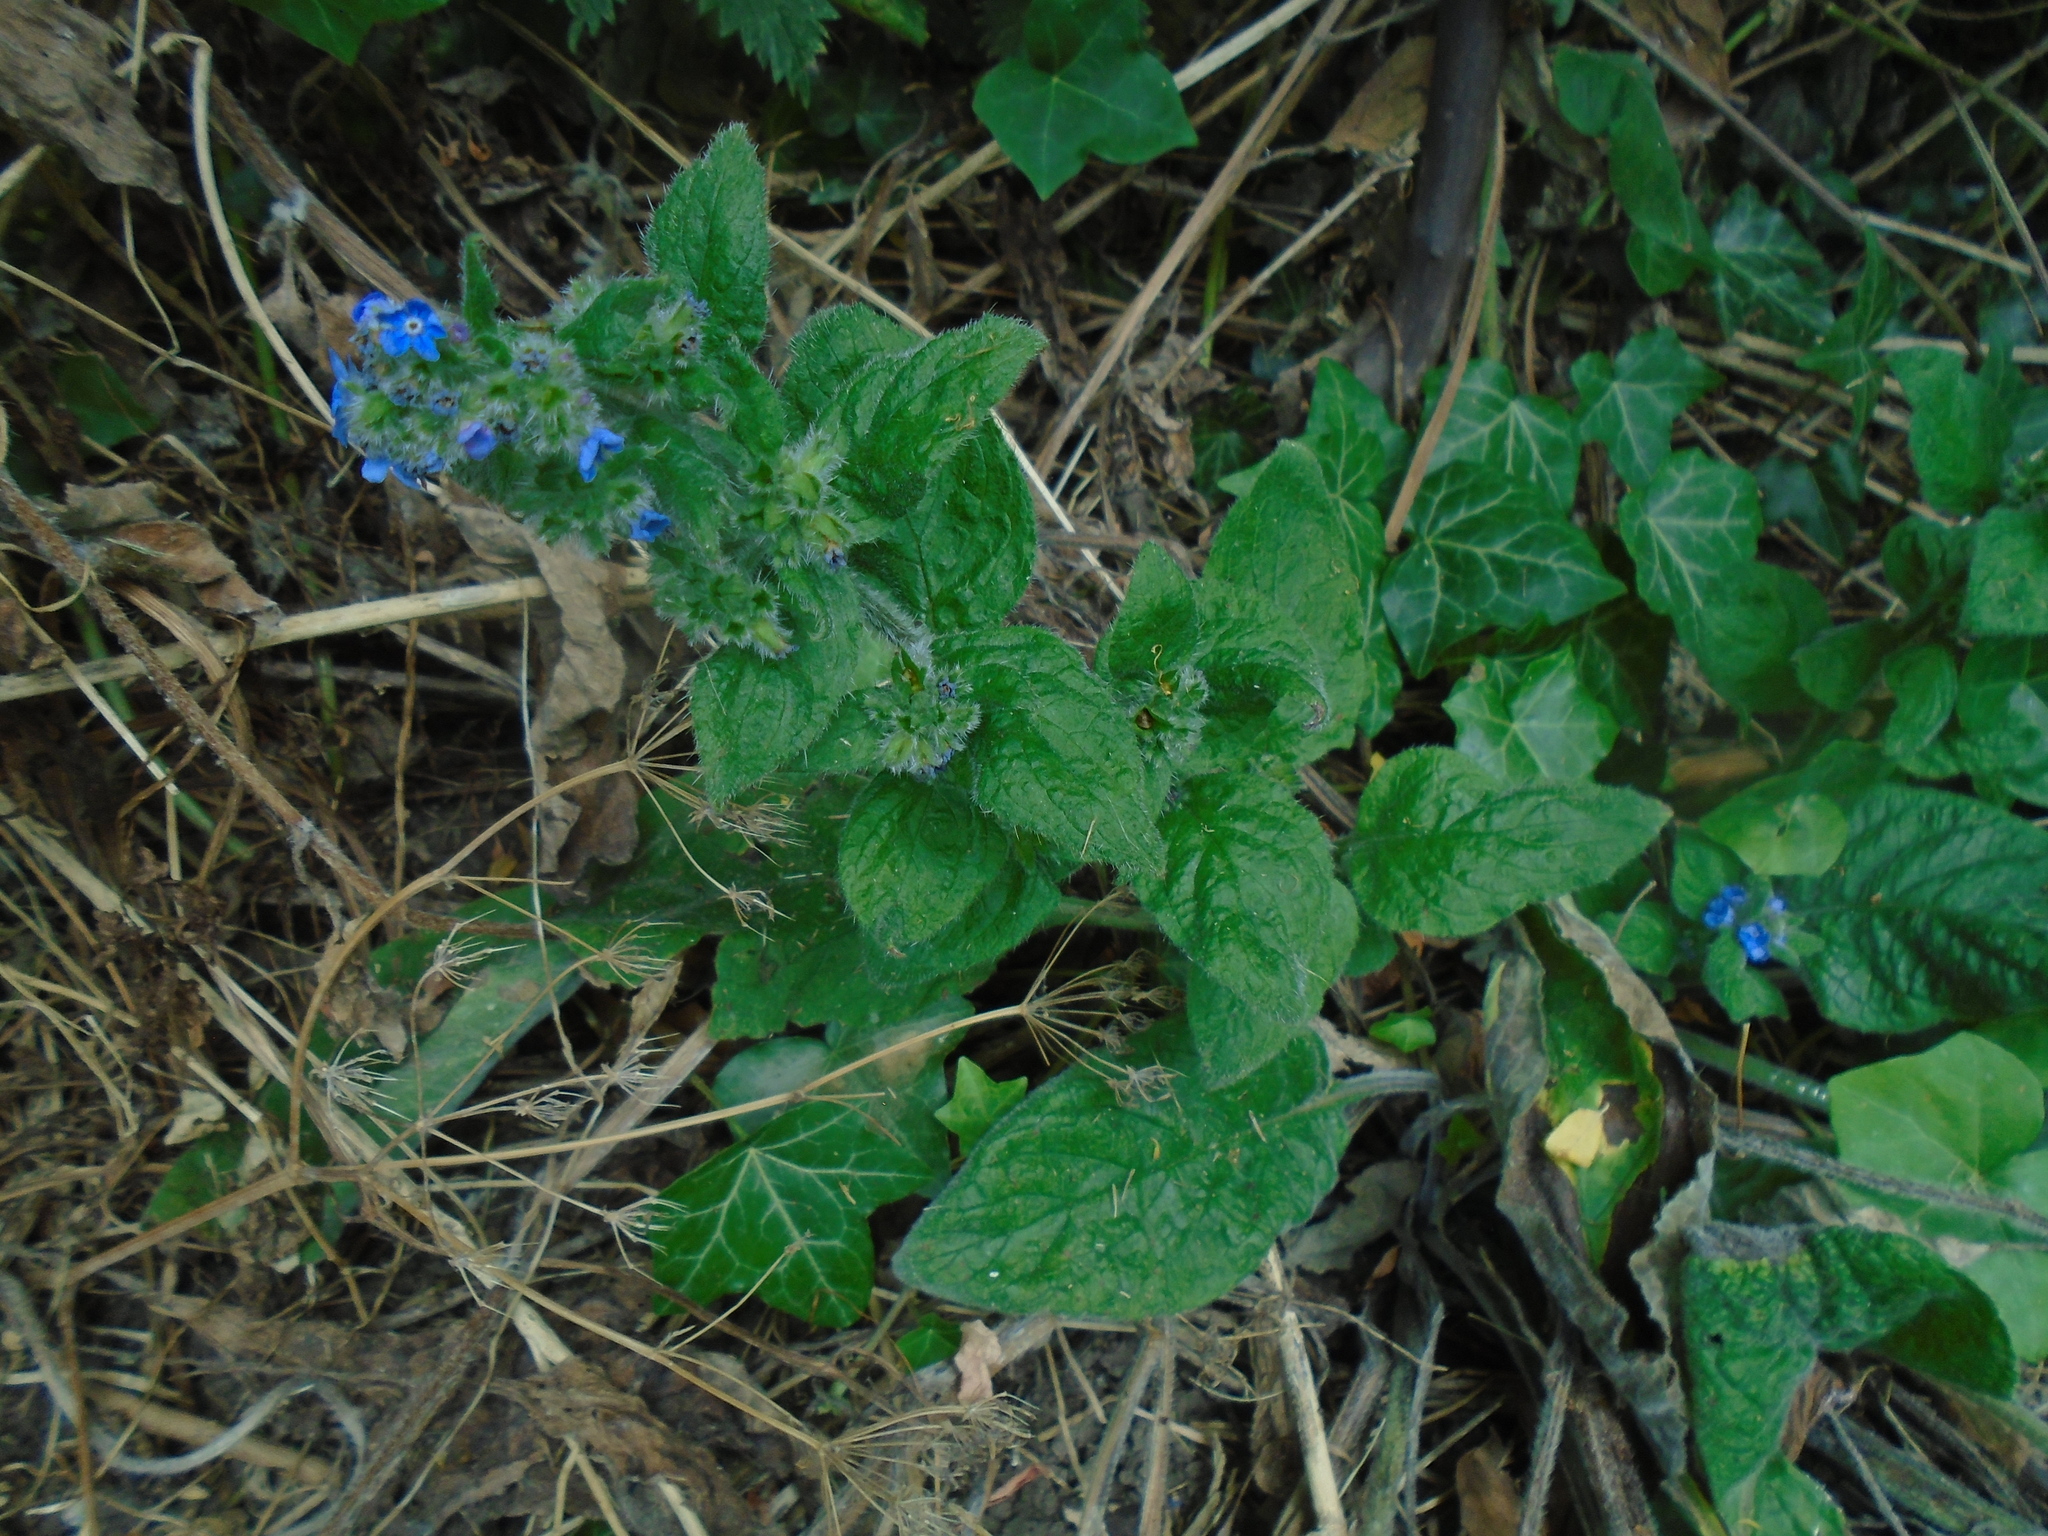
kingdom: Plantae
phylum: Tracheophyta
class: Magnoliopsida
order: Boraginales
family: Boraginaceae
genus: Pentaglottis
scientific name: Pentaglottis sempervirens
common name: Green alkanet
